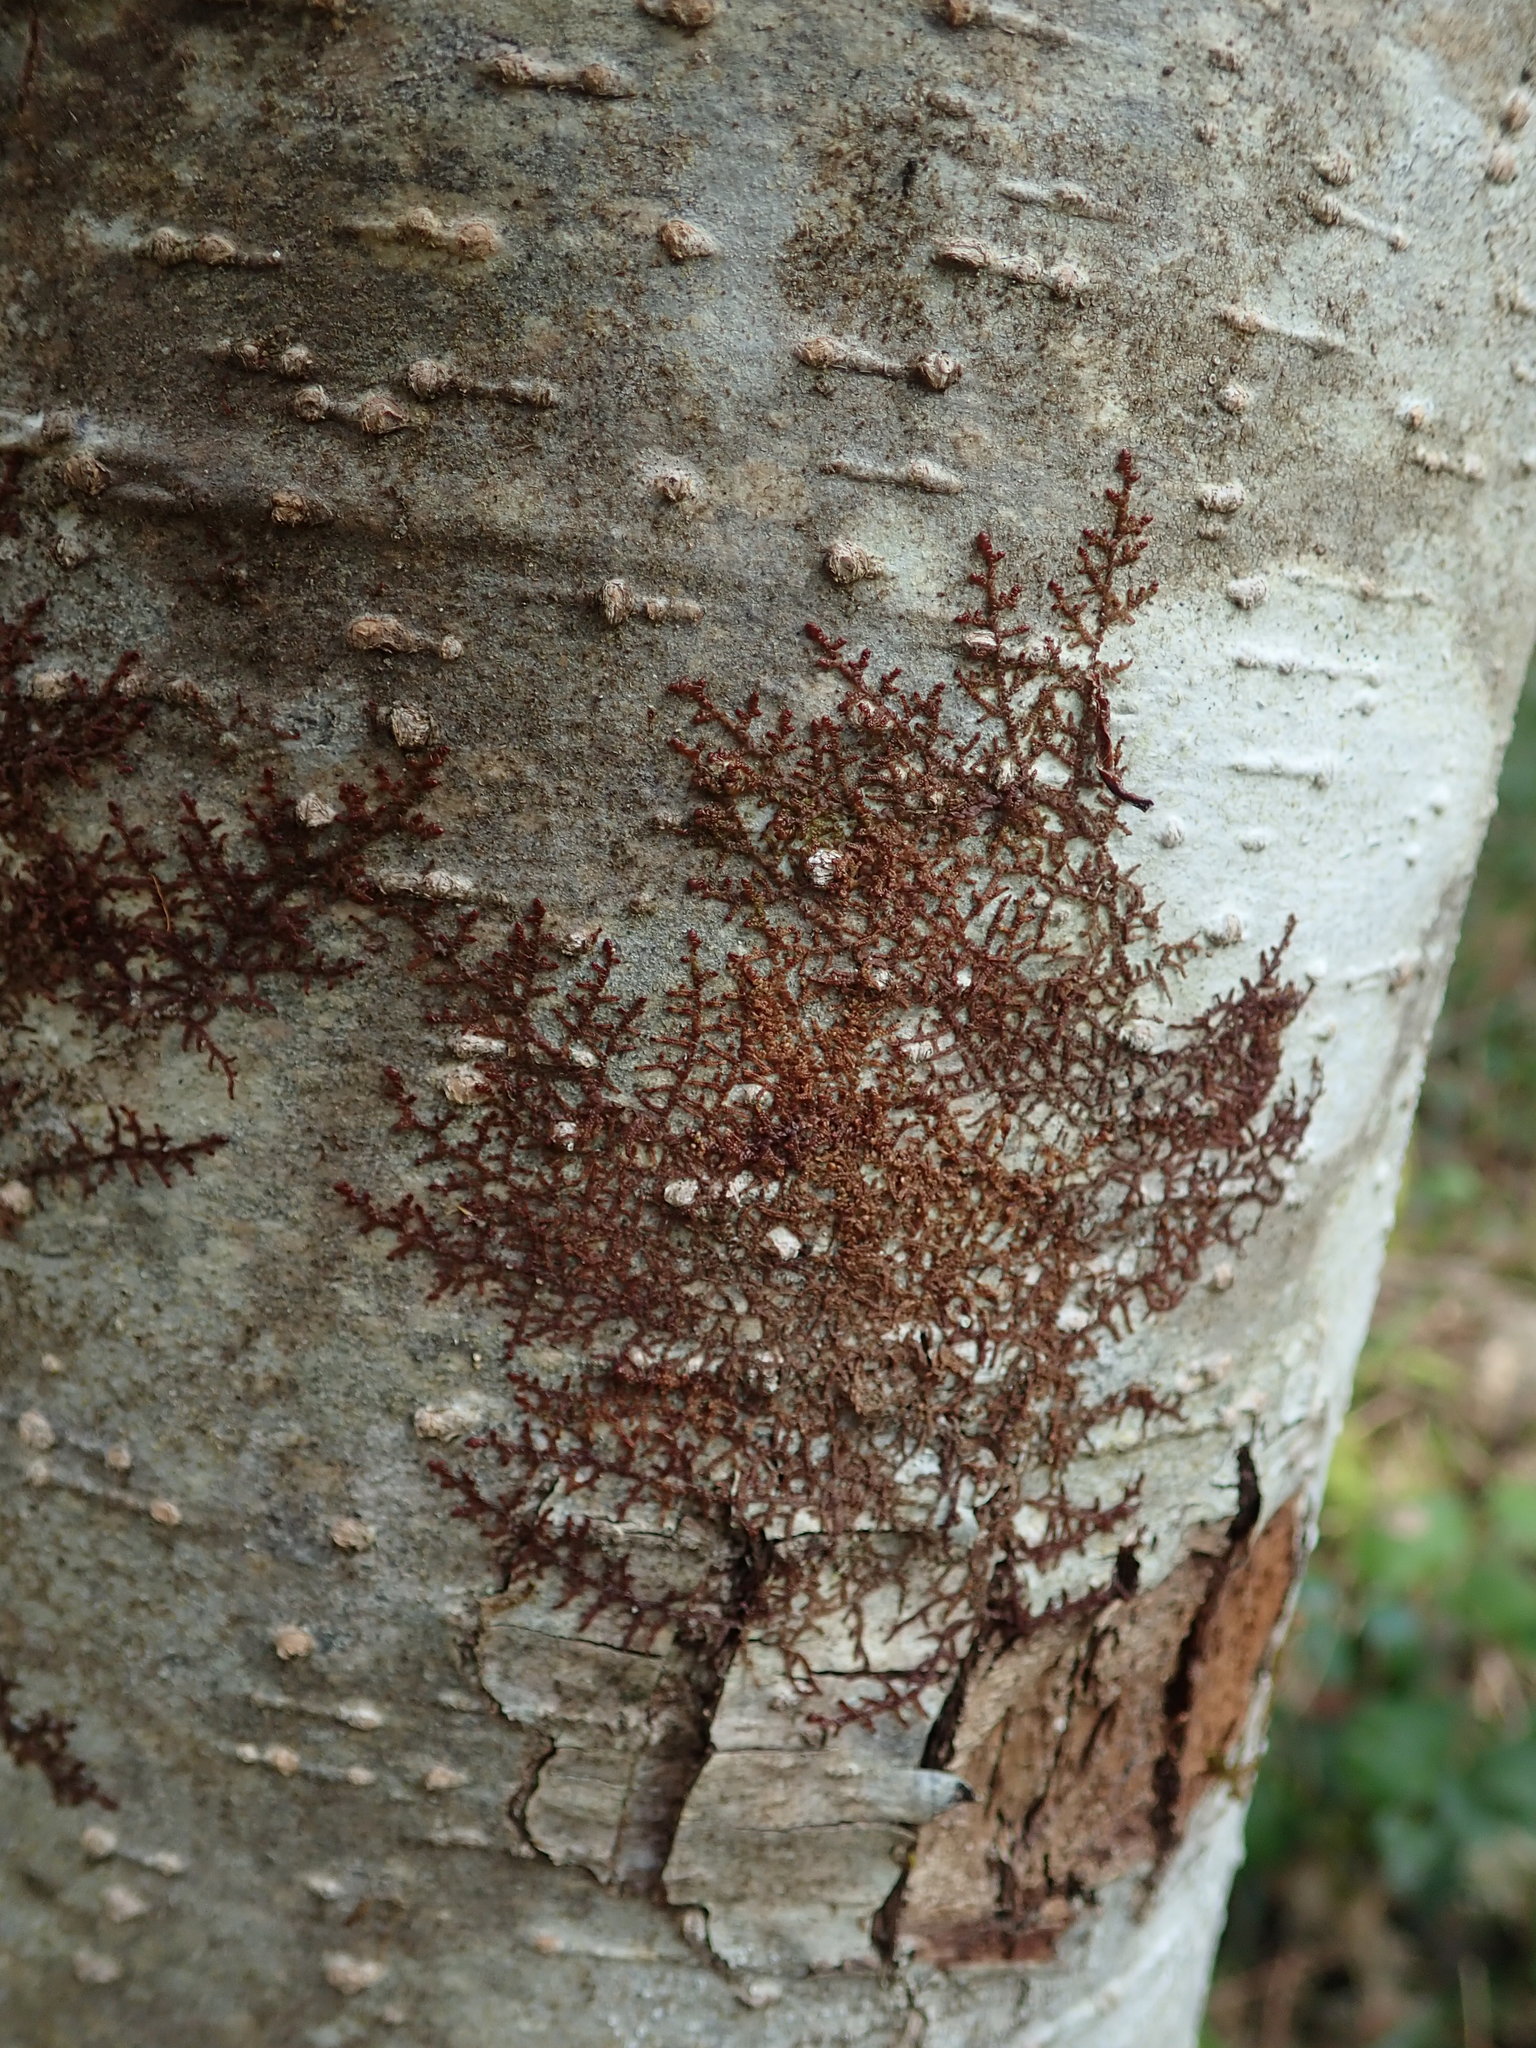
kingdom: Plantae
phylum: Marchantiophyta
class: Jungermanniopsida
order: Porellales
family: Frullaniaceae
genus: Frullania
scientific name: Frullania nisquallensis
